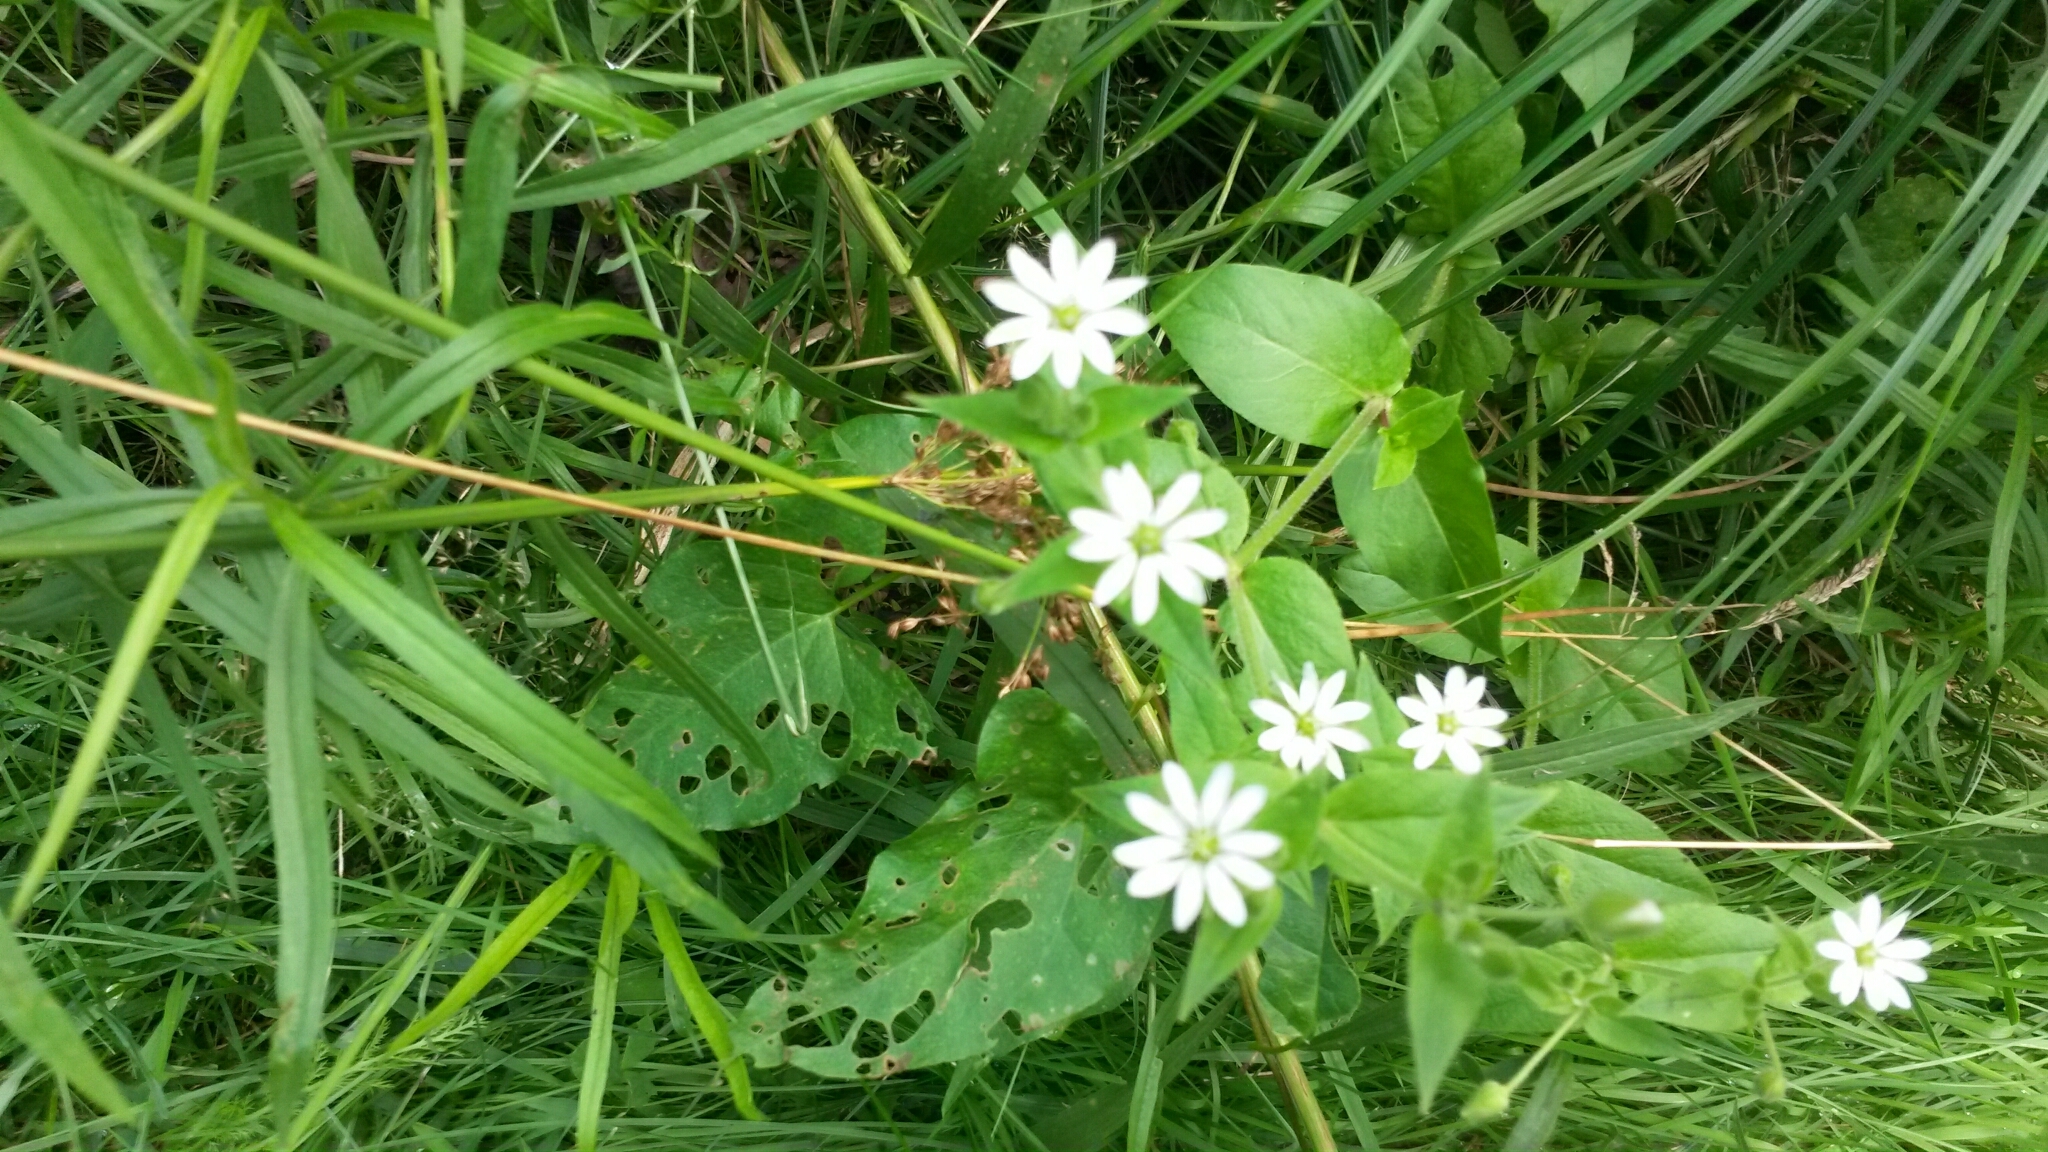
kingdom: Plantae
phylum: Tracheophyta
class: Magnoliopsida
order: Caryophyllales
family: Caryophyllaceae
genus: Stellaria
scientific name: Stellaria media
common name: Common chickweed
